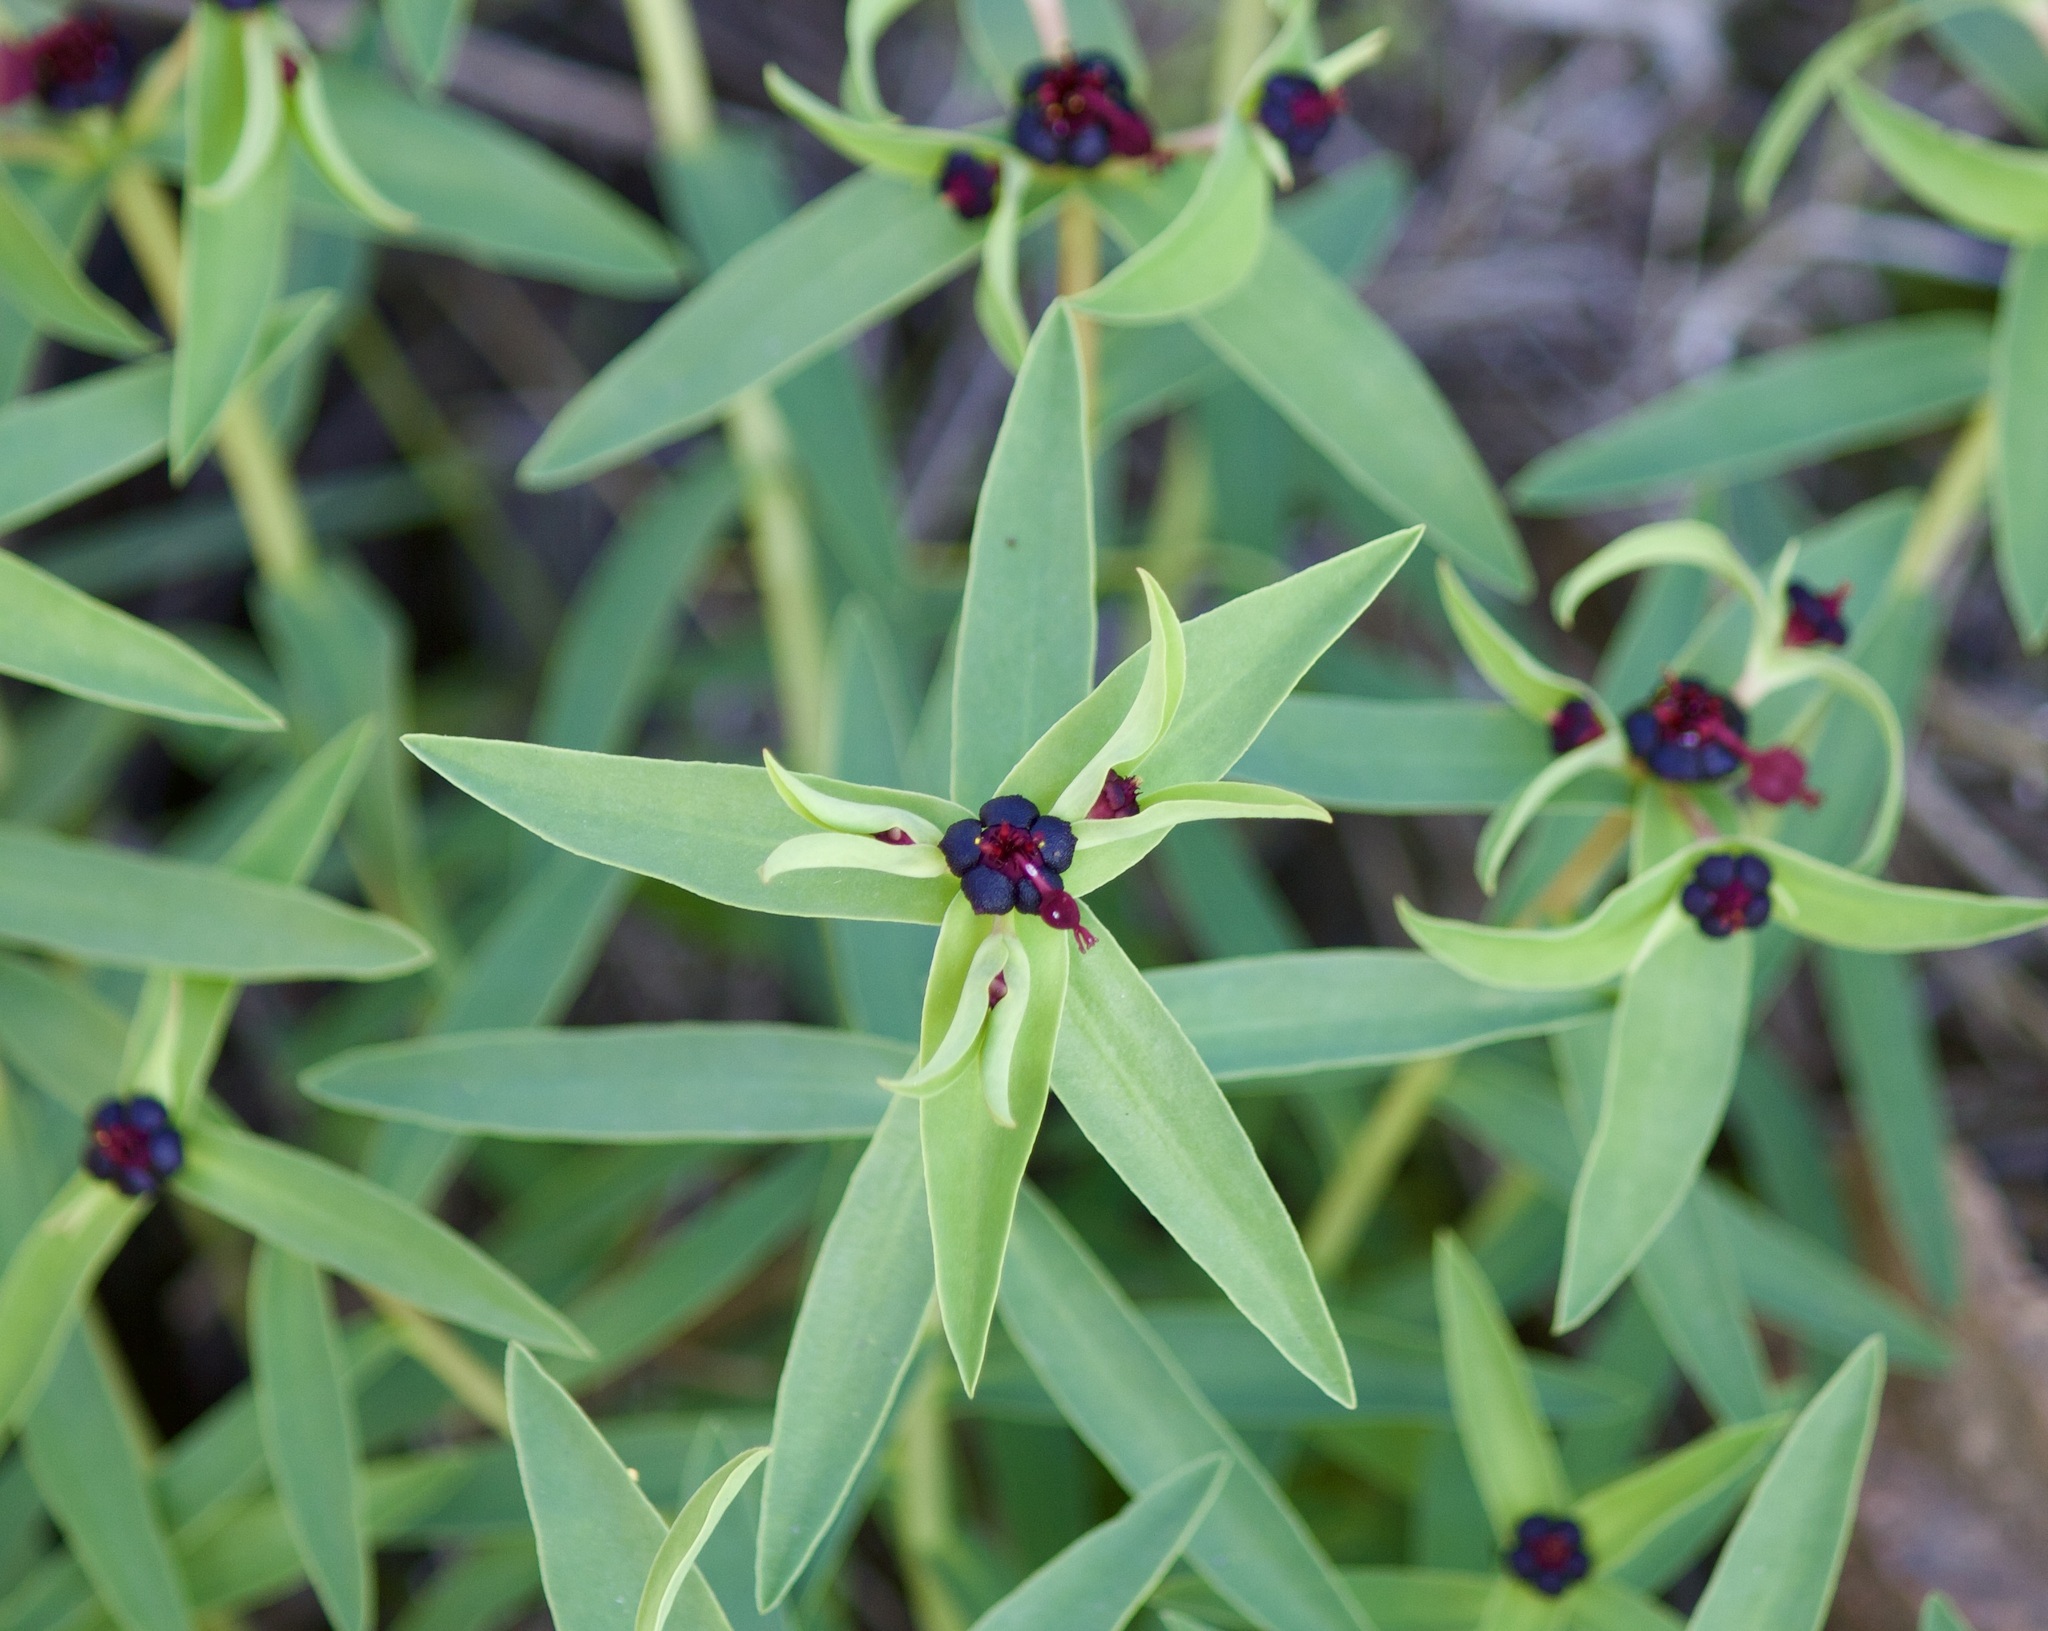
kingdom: Plantae
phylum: Tracheophyta
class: Magnoliopsida
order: Malpighiales
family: Euphorbiaceae
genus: Euphorbia
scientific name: Euphorbia portulacoides
